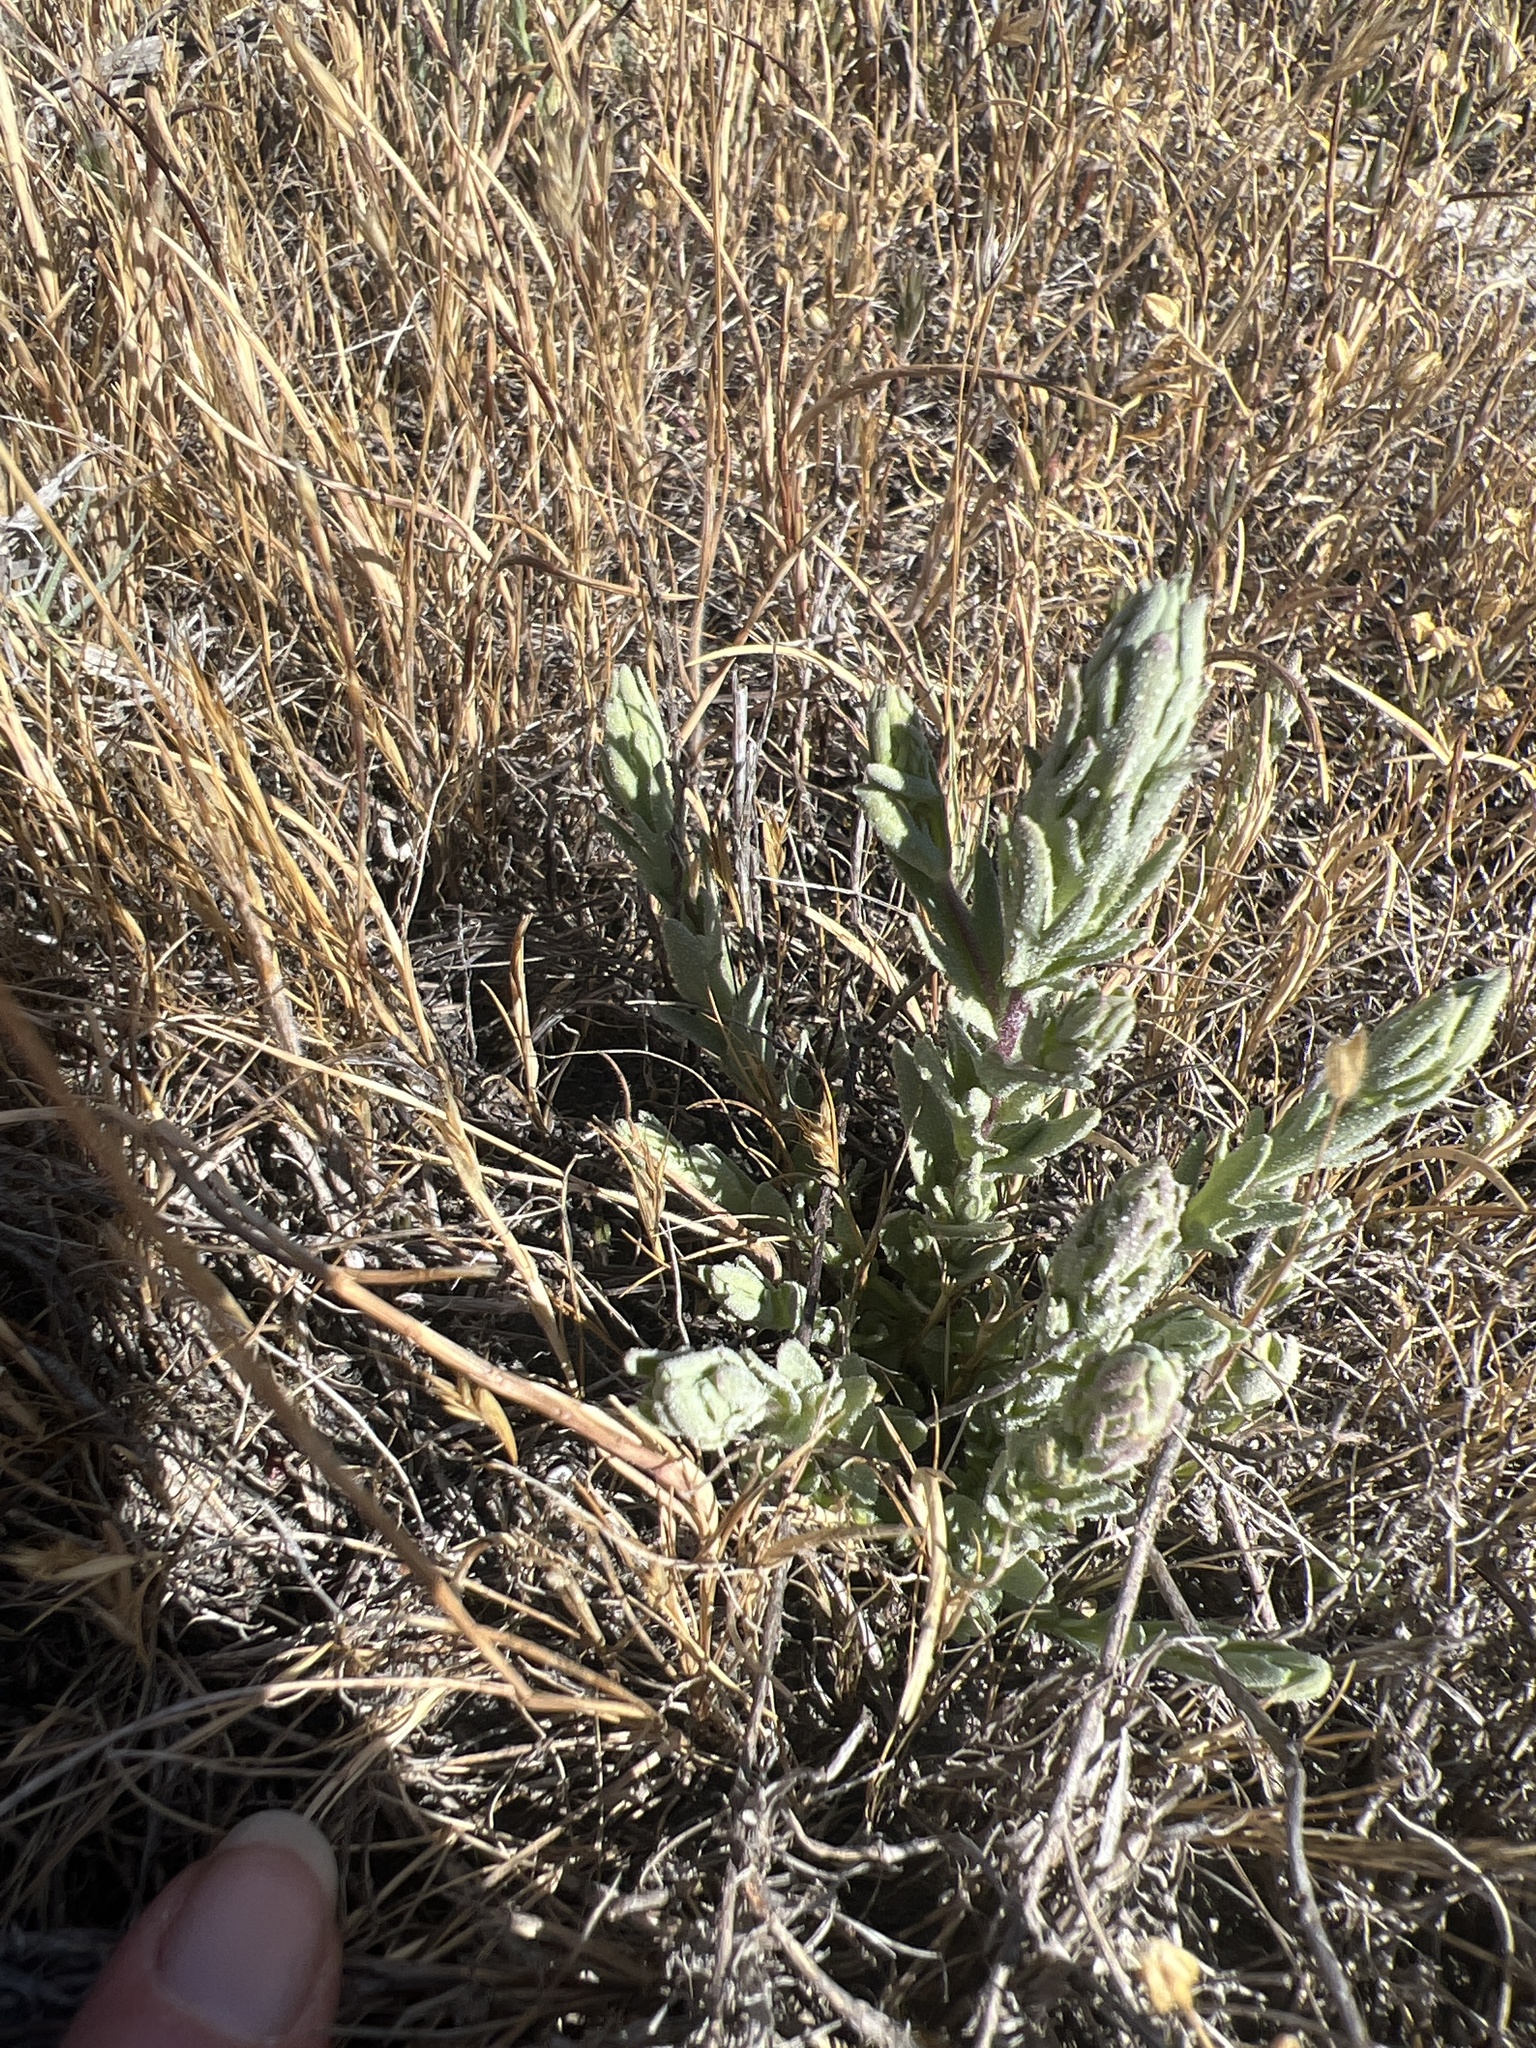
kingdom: Plantae
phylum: Tracheophyta
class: Magnoliopsida
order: Lamiales
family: Orobanchaceae
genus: Chloropyron
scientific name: Chloropyron palmatum
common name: Palmate salty bird's-beak
